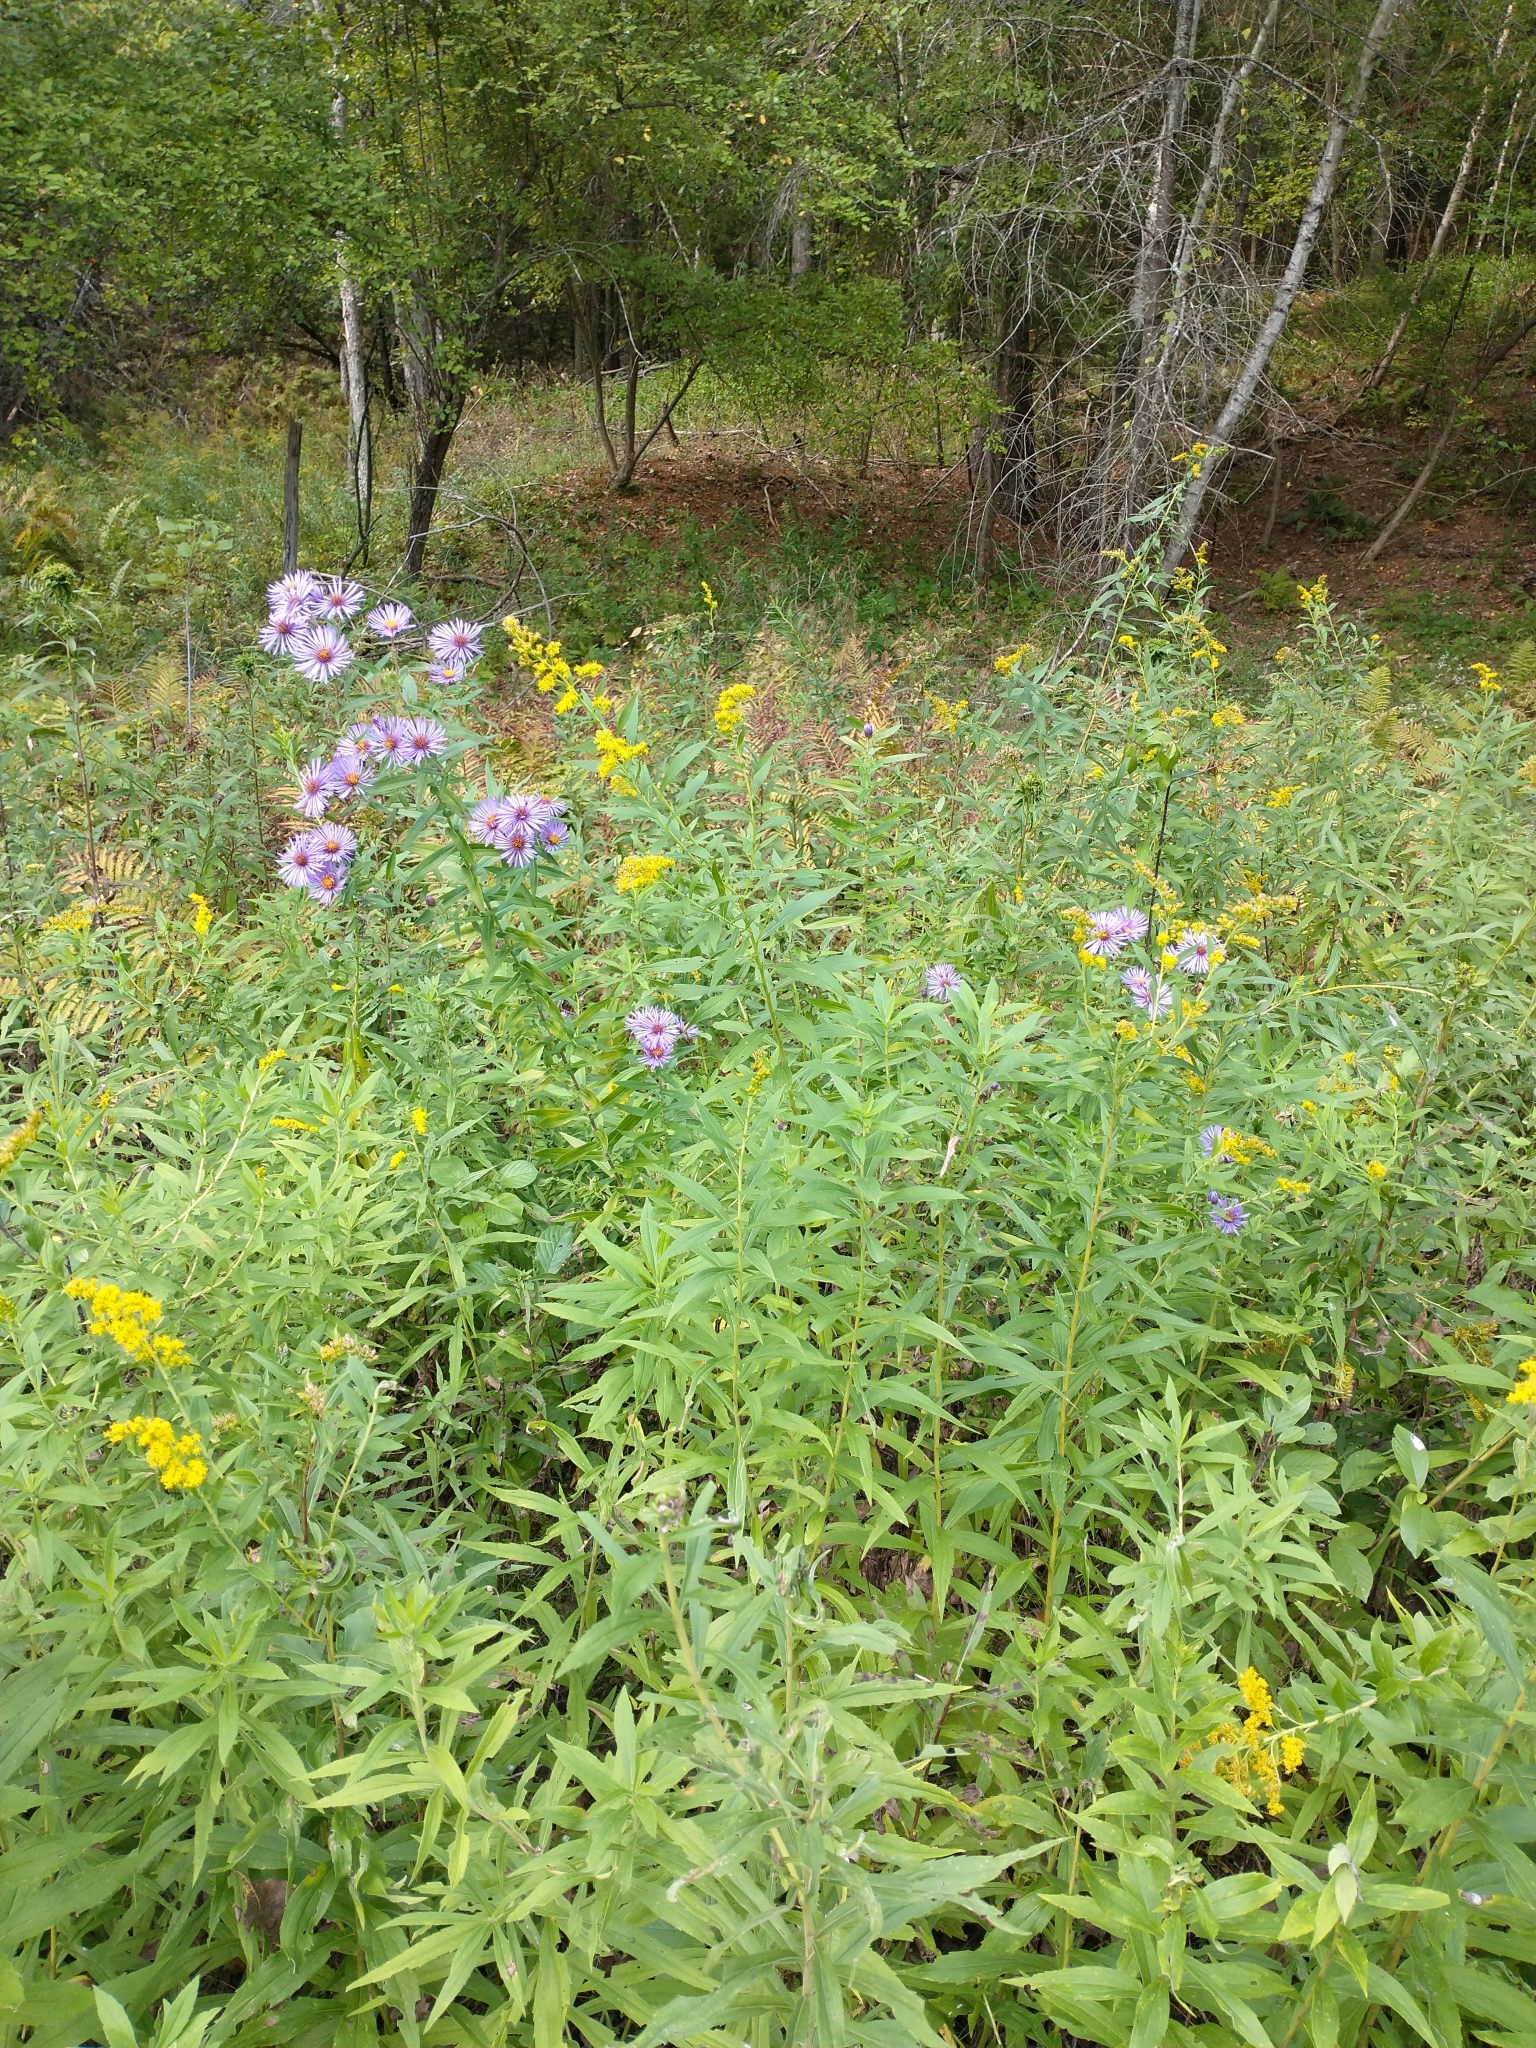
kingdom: Plantae
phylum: Tracheophyta
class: Magnoliopsida
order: Asterales
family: Asteraceae
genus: Symphyotrichum
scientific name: Symphyotrichum novae-angliae
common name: Michaelmas daisy
